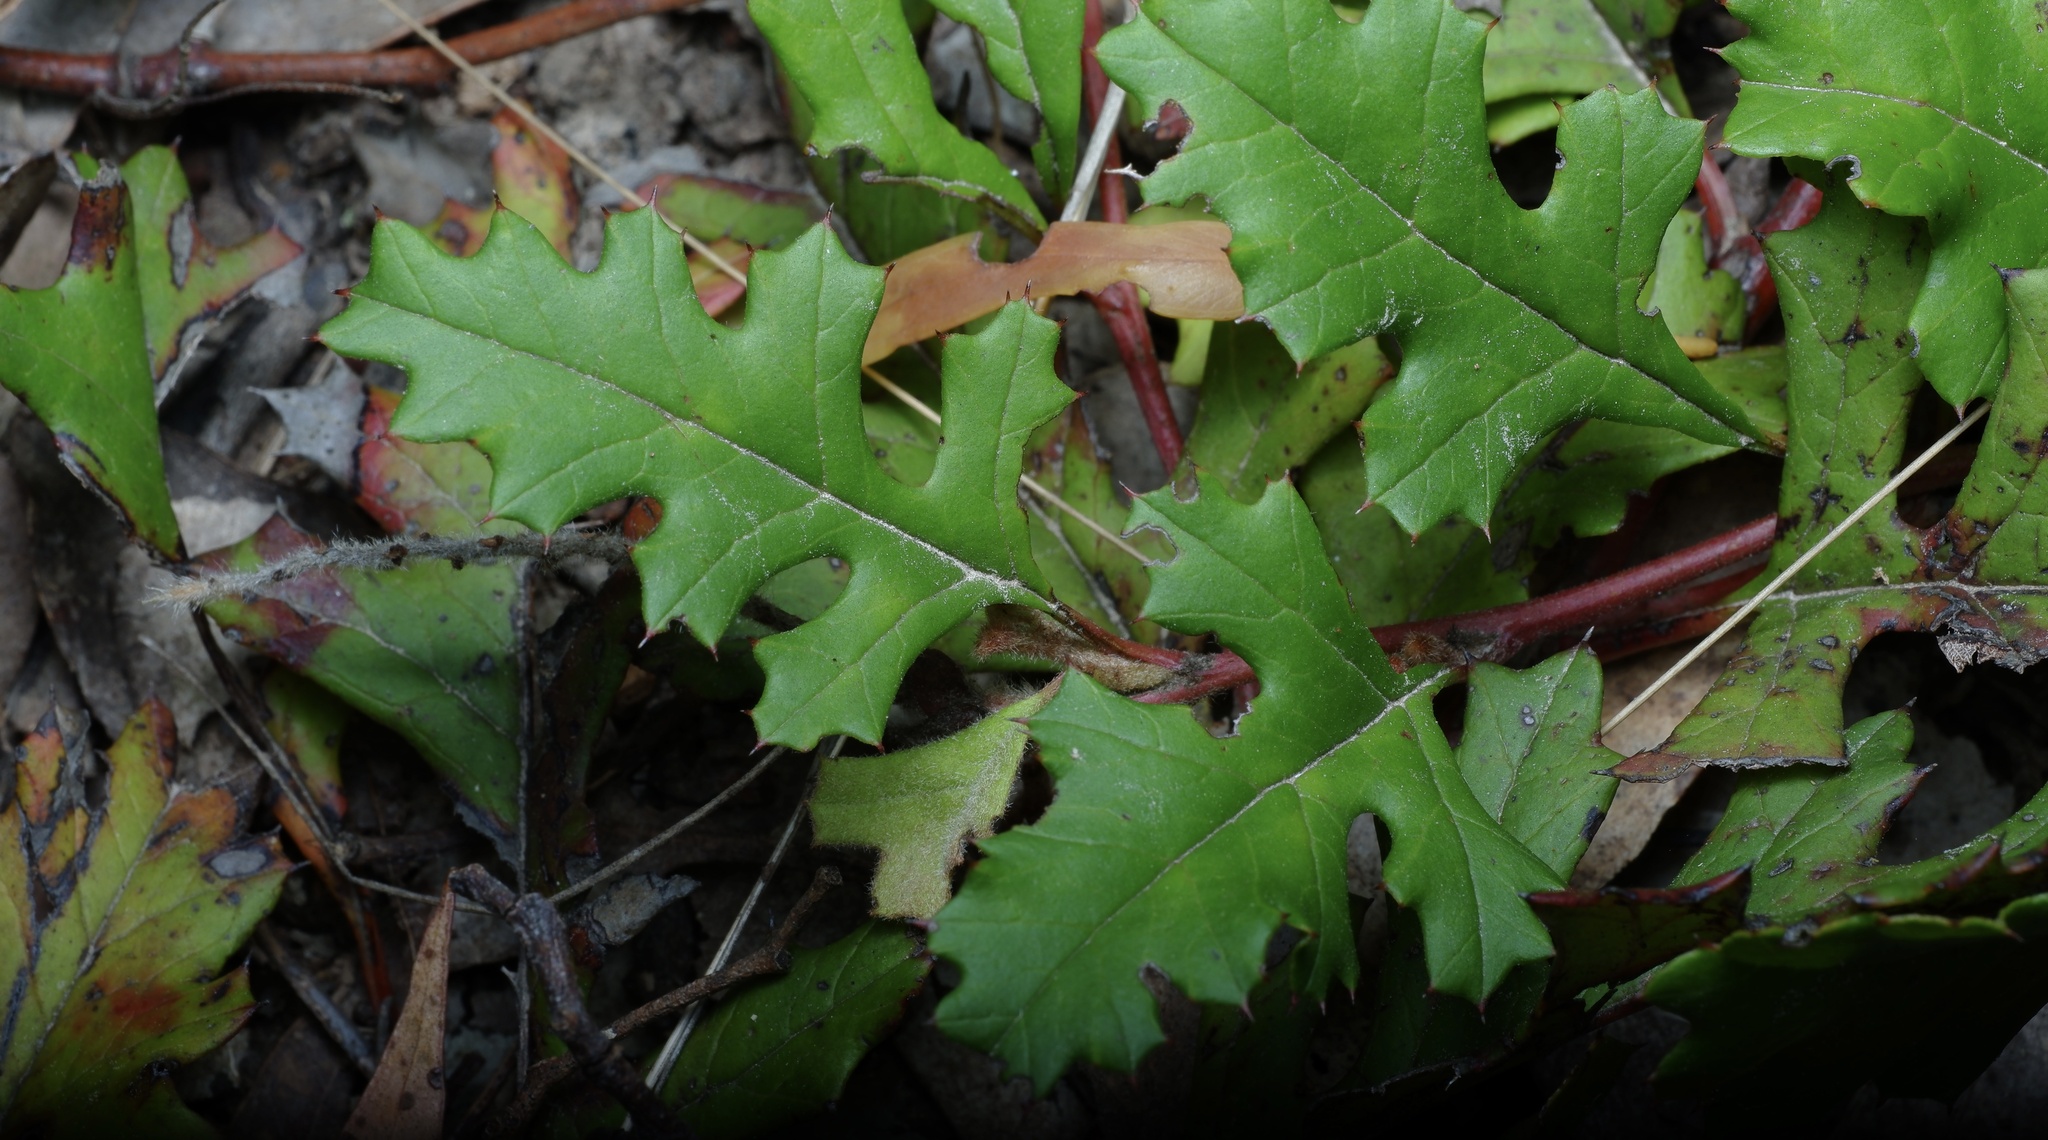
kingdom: Plantae
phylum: Tracheophyta
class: Magnoliopsida
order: Proteales
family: Proteaceae
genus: Grevillea
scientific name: Grevillea obtecta
